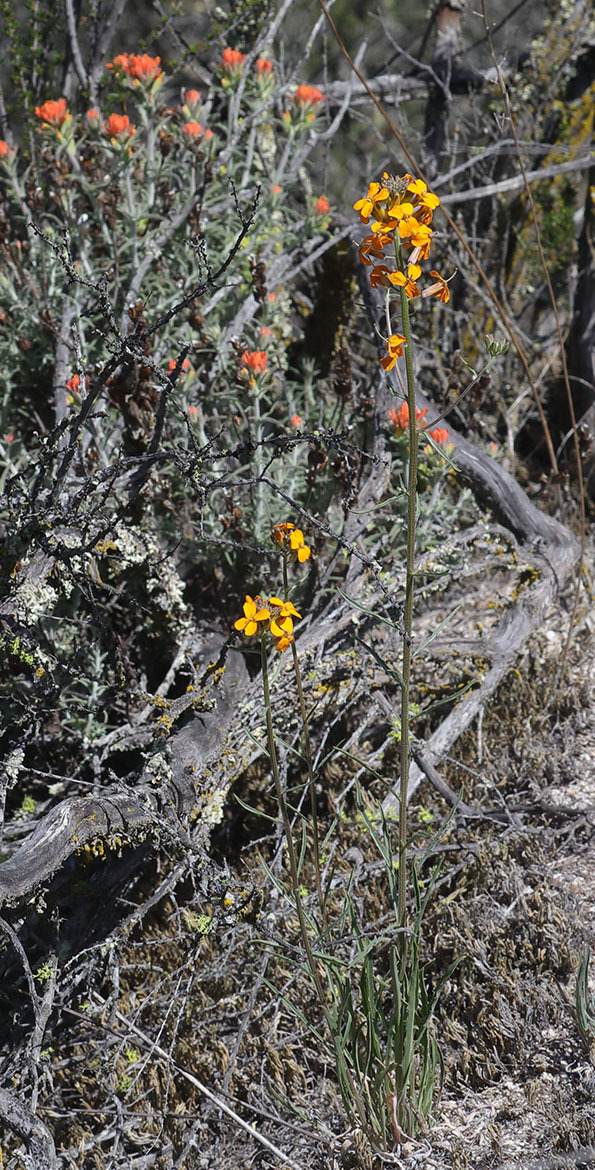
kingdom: Plantae
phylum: Tracheophyta
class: Magnoliopsida
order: Brassicales
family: Brassicaceae
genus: Erysimum
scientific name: Erysimum capitatum
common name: Western wallflower
